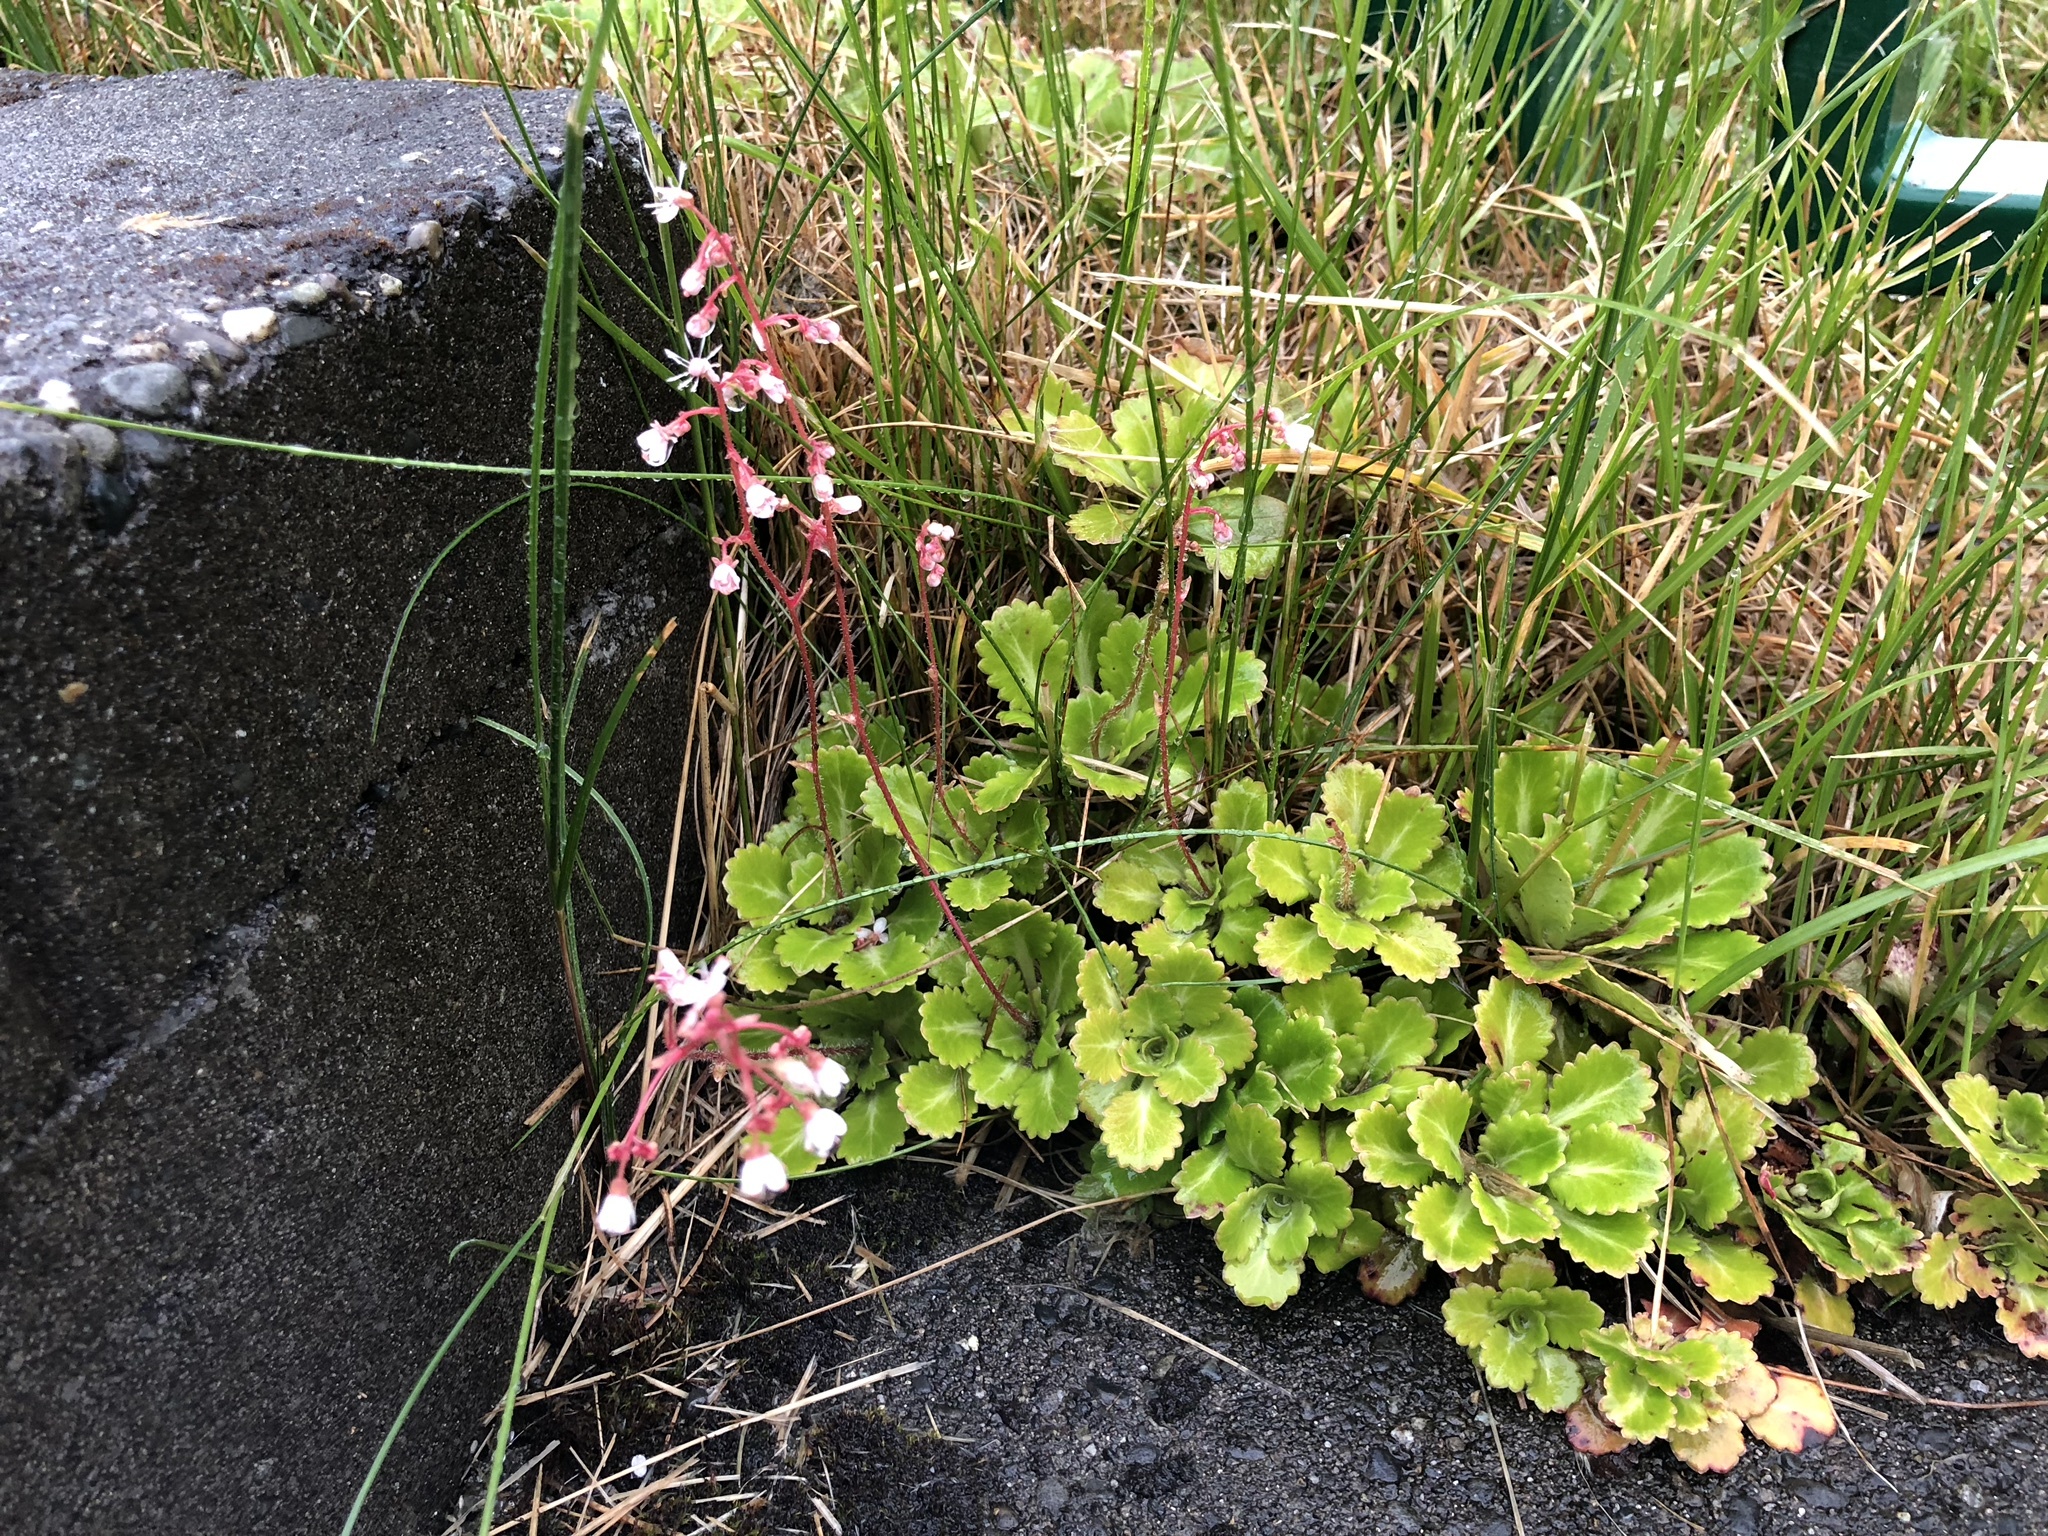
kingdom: Plantae
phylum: Tracheophyta
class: Magnoliopsida
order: Saxifragales
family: Saxifragaceae
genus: Saxifraga
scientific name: Saxifraga urbium
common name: Londonpride
